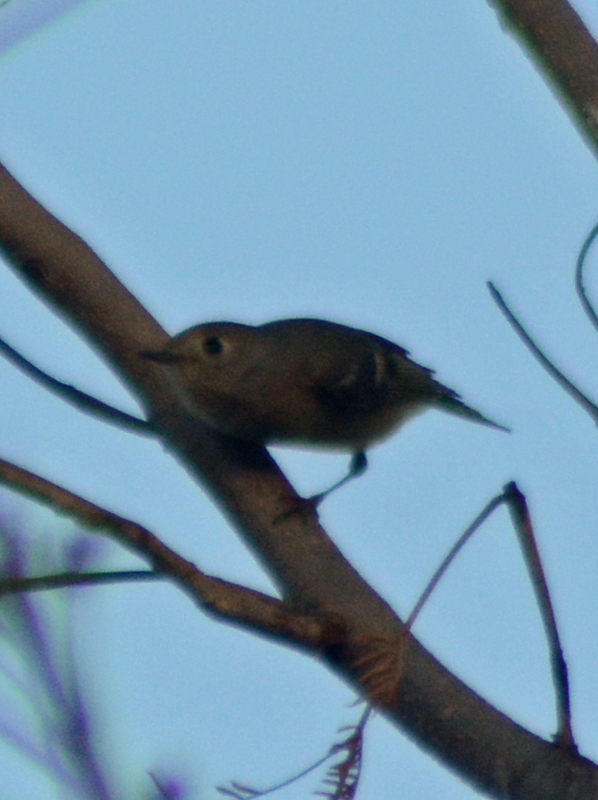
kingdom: Animalia
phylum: Chordata
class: Aves
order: Passeriformes
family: Regulidae
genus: Regulus
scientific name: Regulus calendula
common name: Ruby-crowned kinglet
